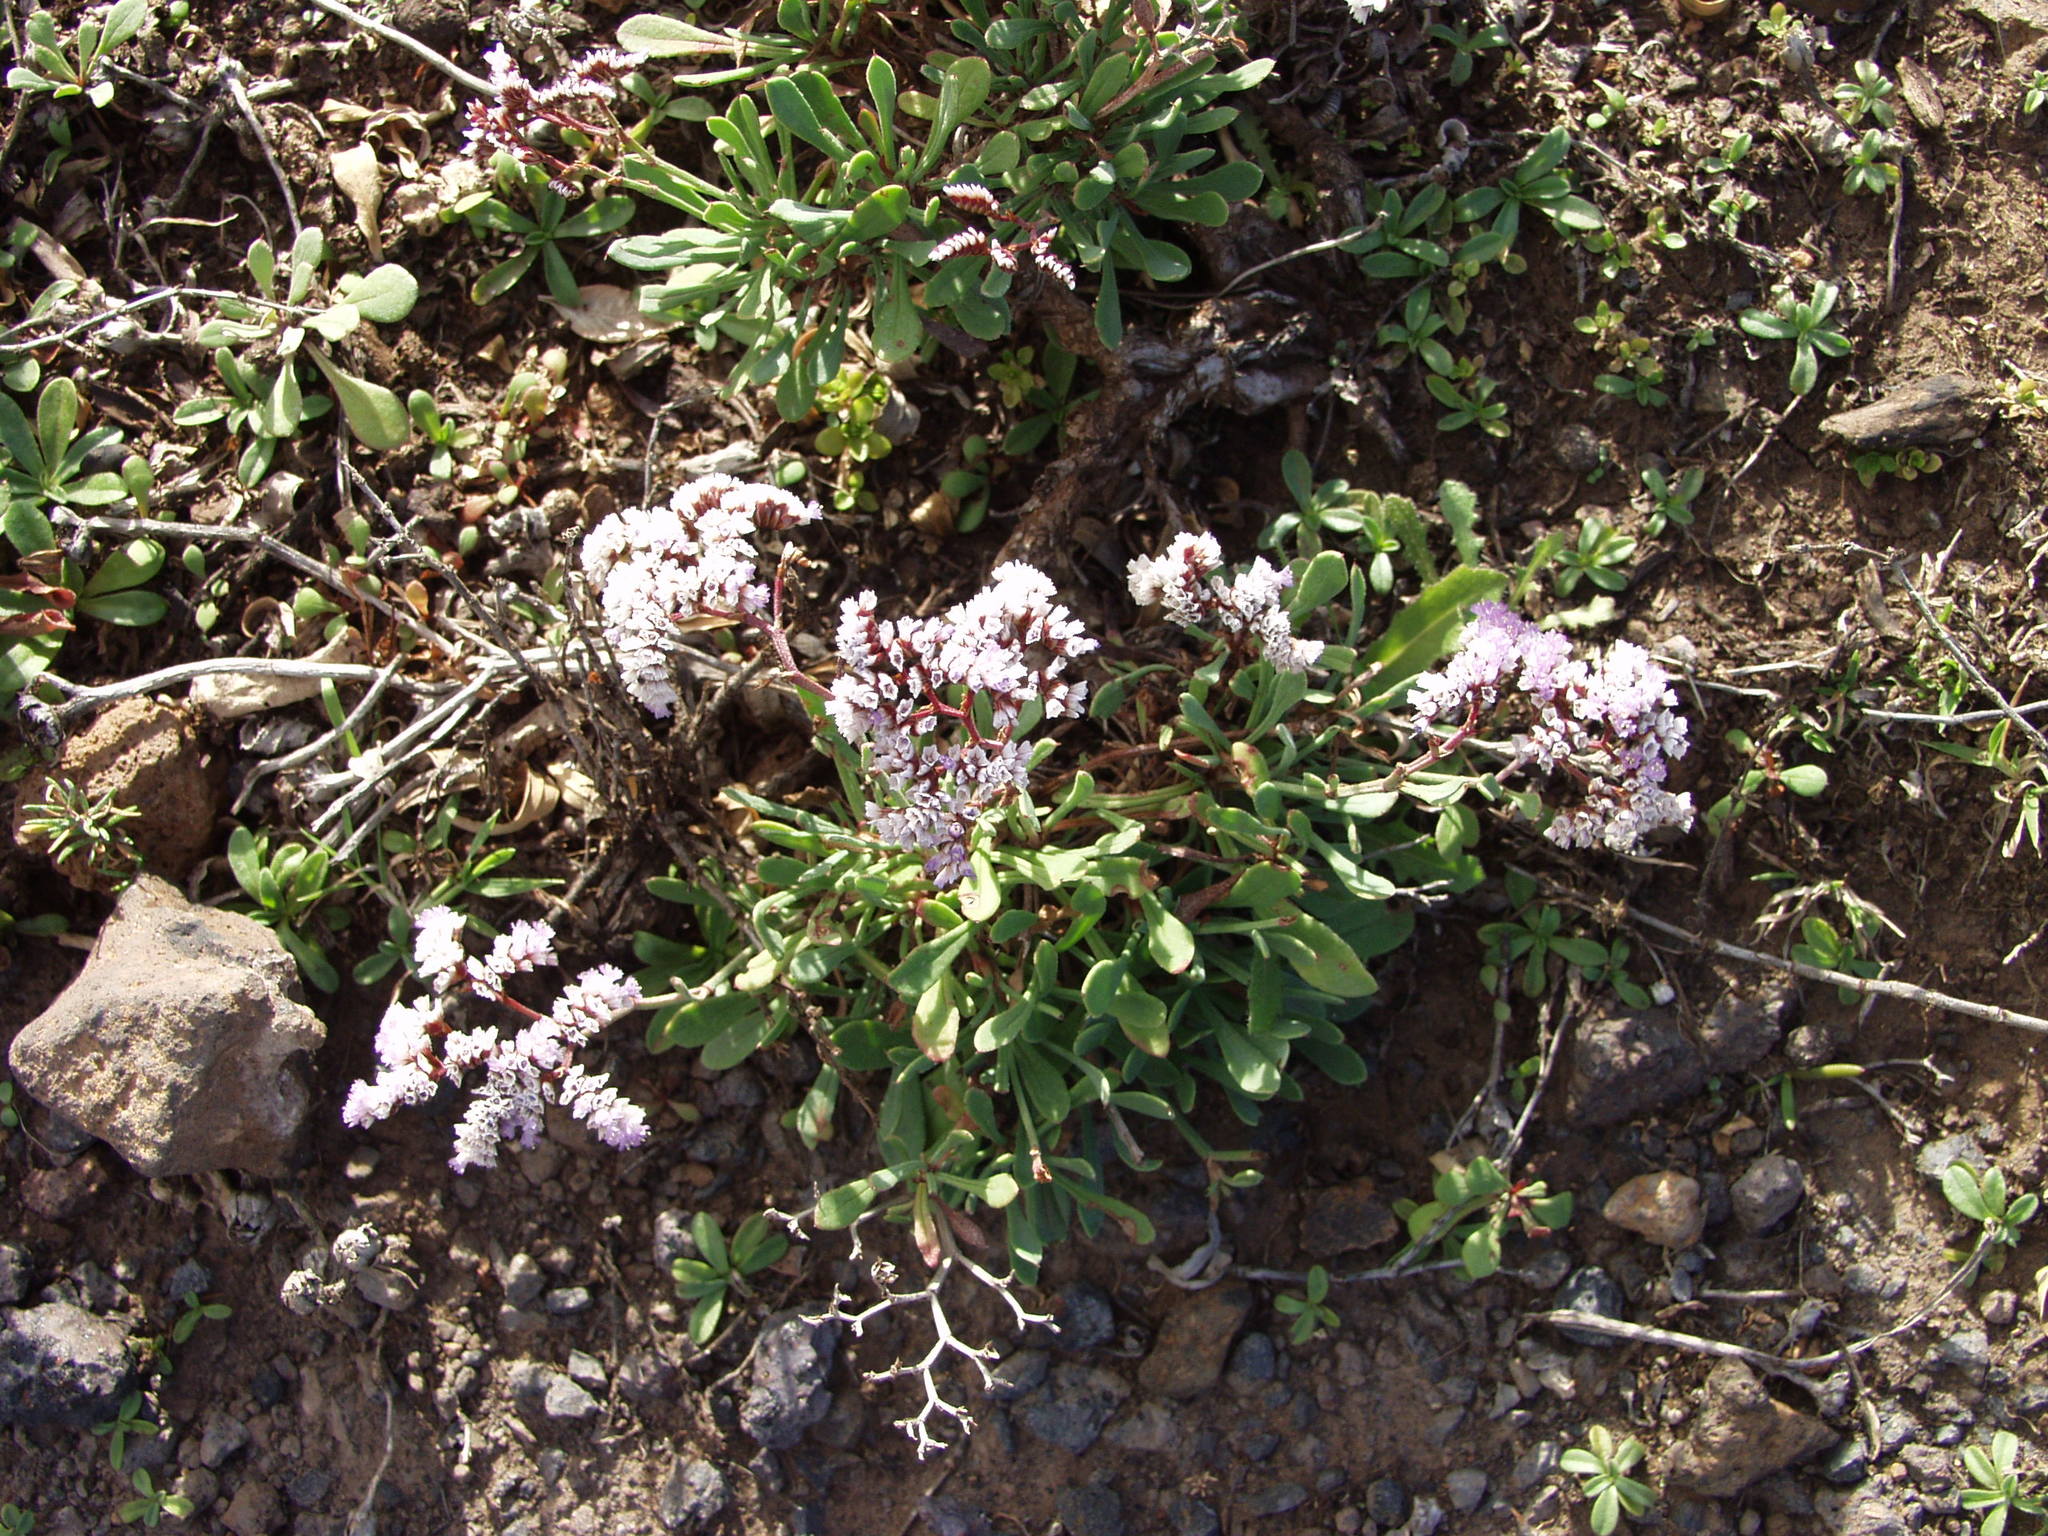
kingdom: Plantae
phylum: Tracheophyta
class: Magnoliopsida
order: Caryophyllales
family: Plumbaginaceae
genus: Limonium
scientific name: Limonium pectinatum
